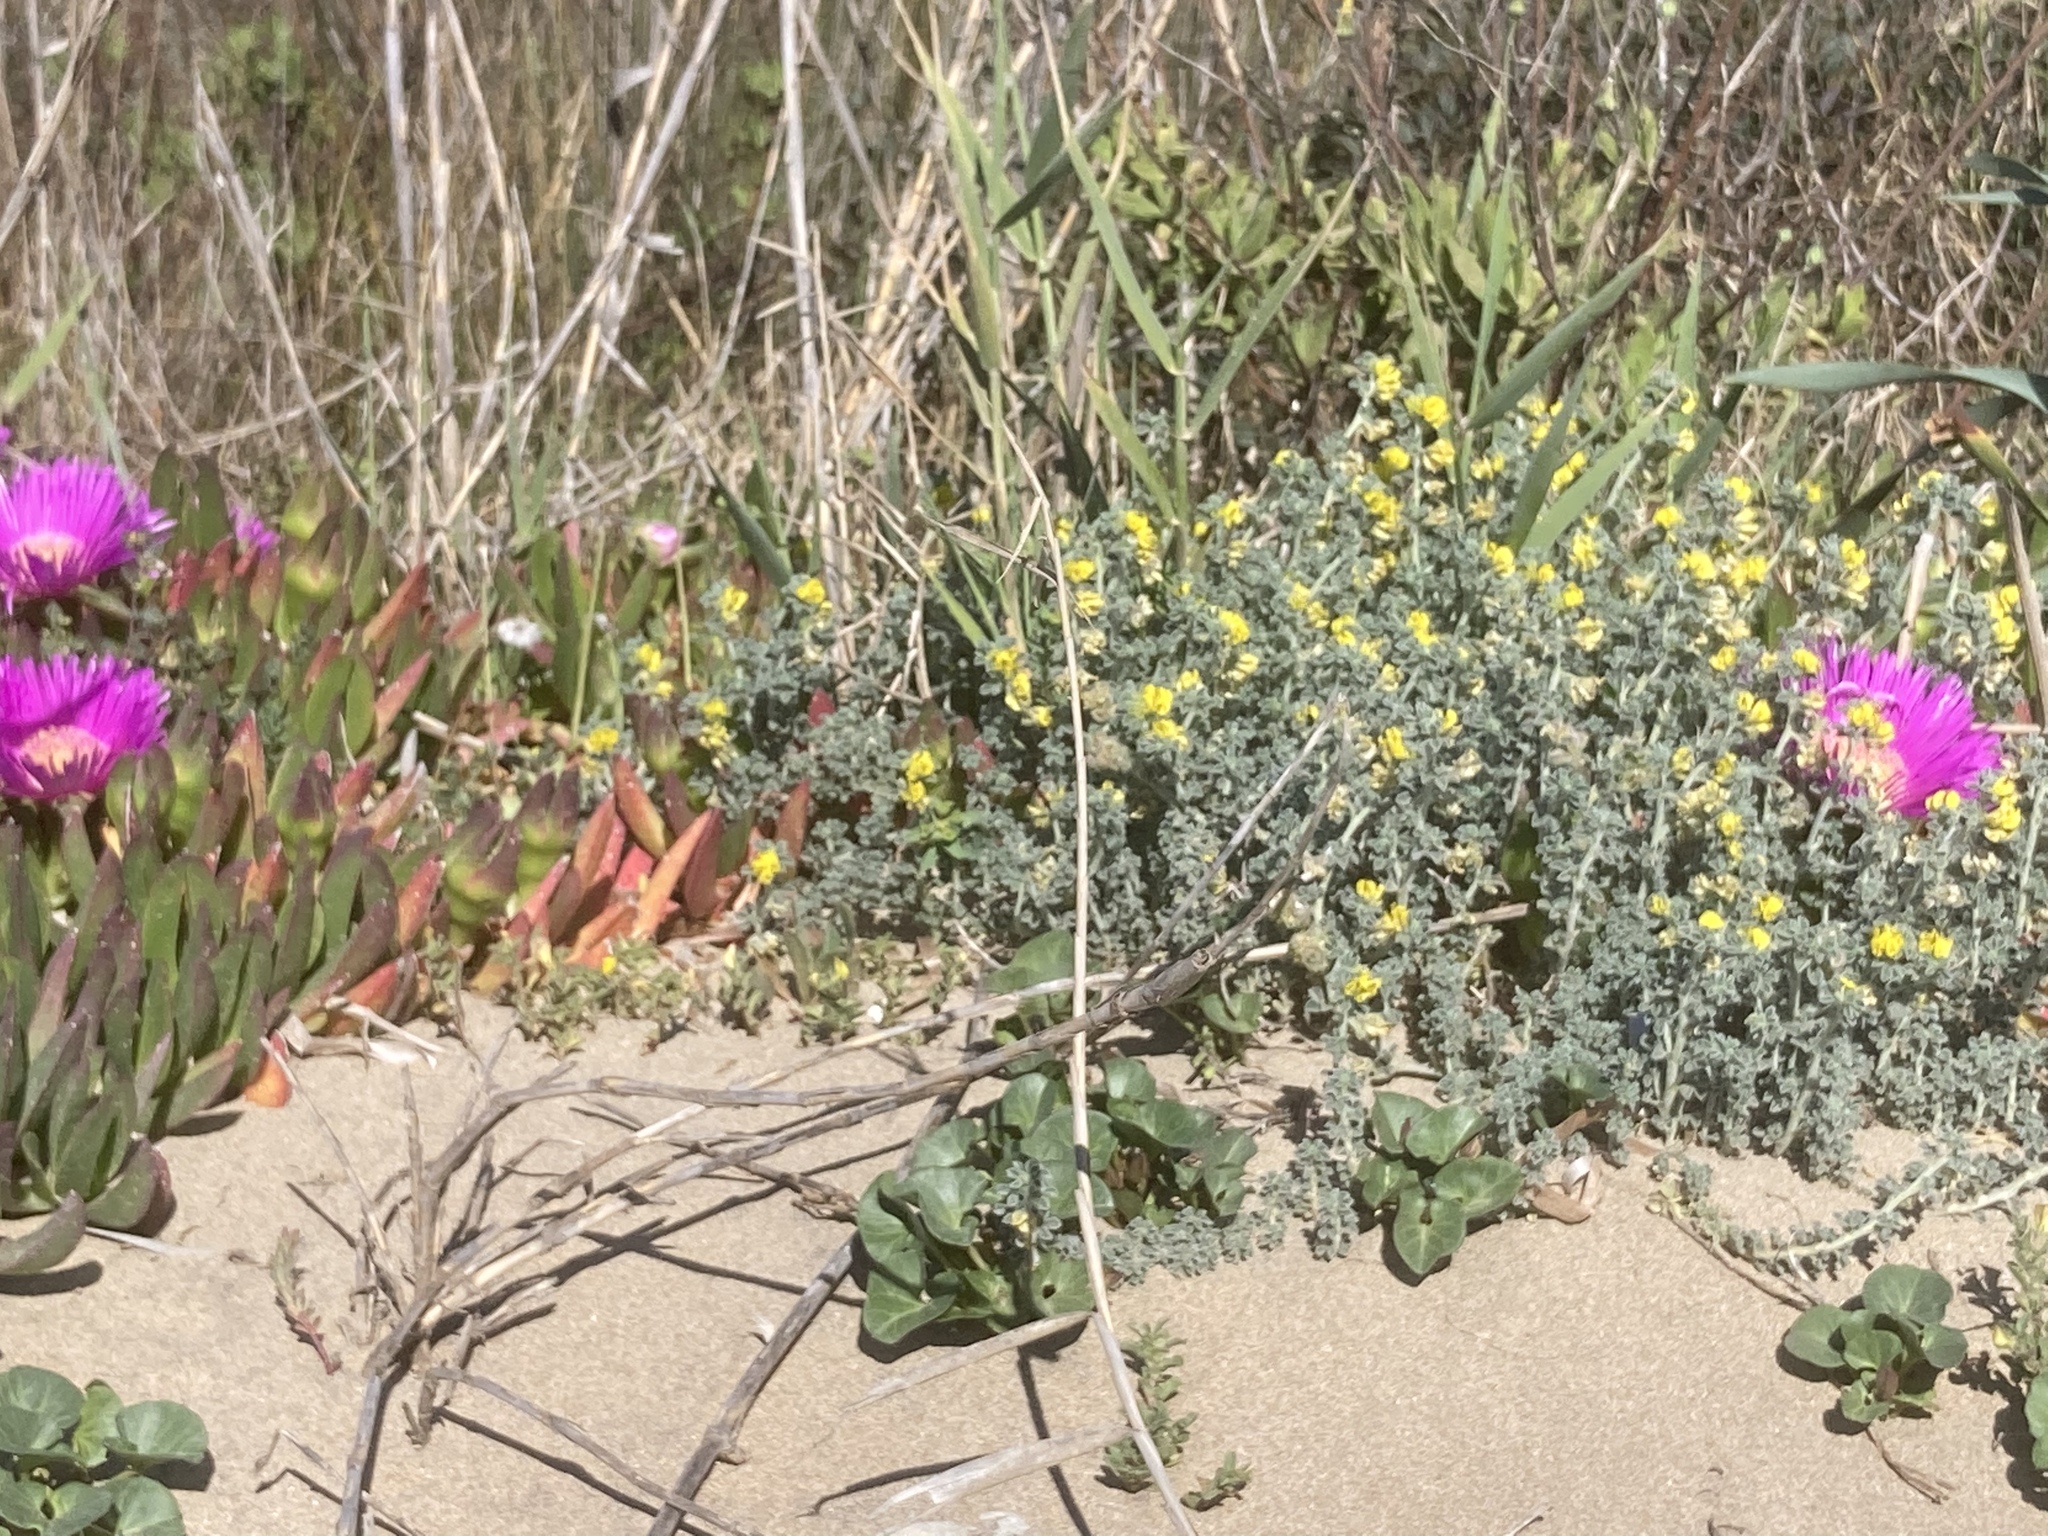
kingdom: Plantae
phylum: Tracheophyta
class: Magnoliopsida
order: Solanales
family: Convolvulaceae
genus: Calystegia
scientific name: Calystegia soldanella
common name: Sea bindweed
